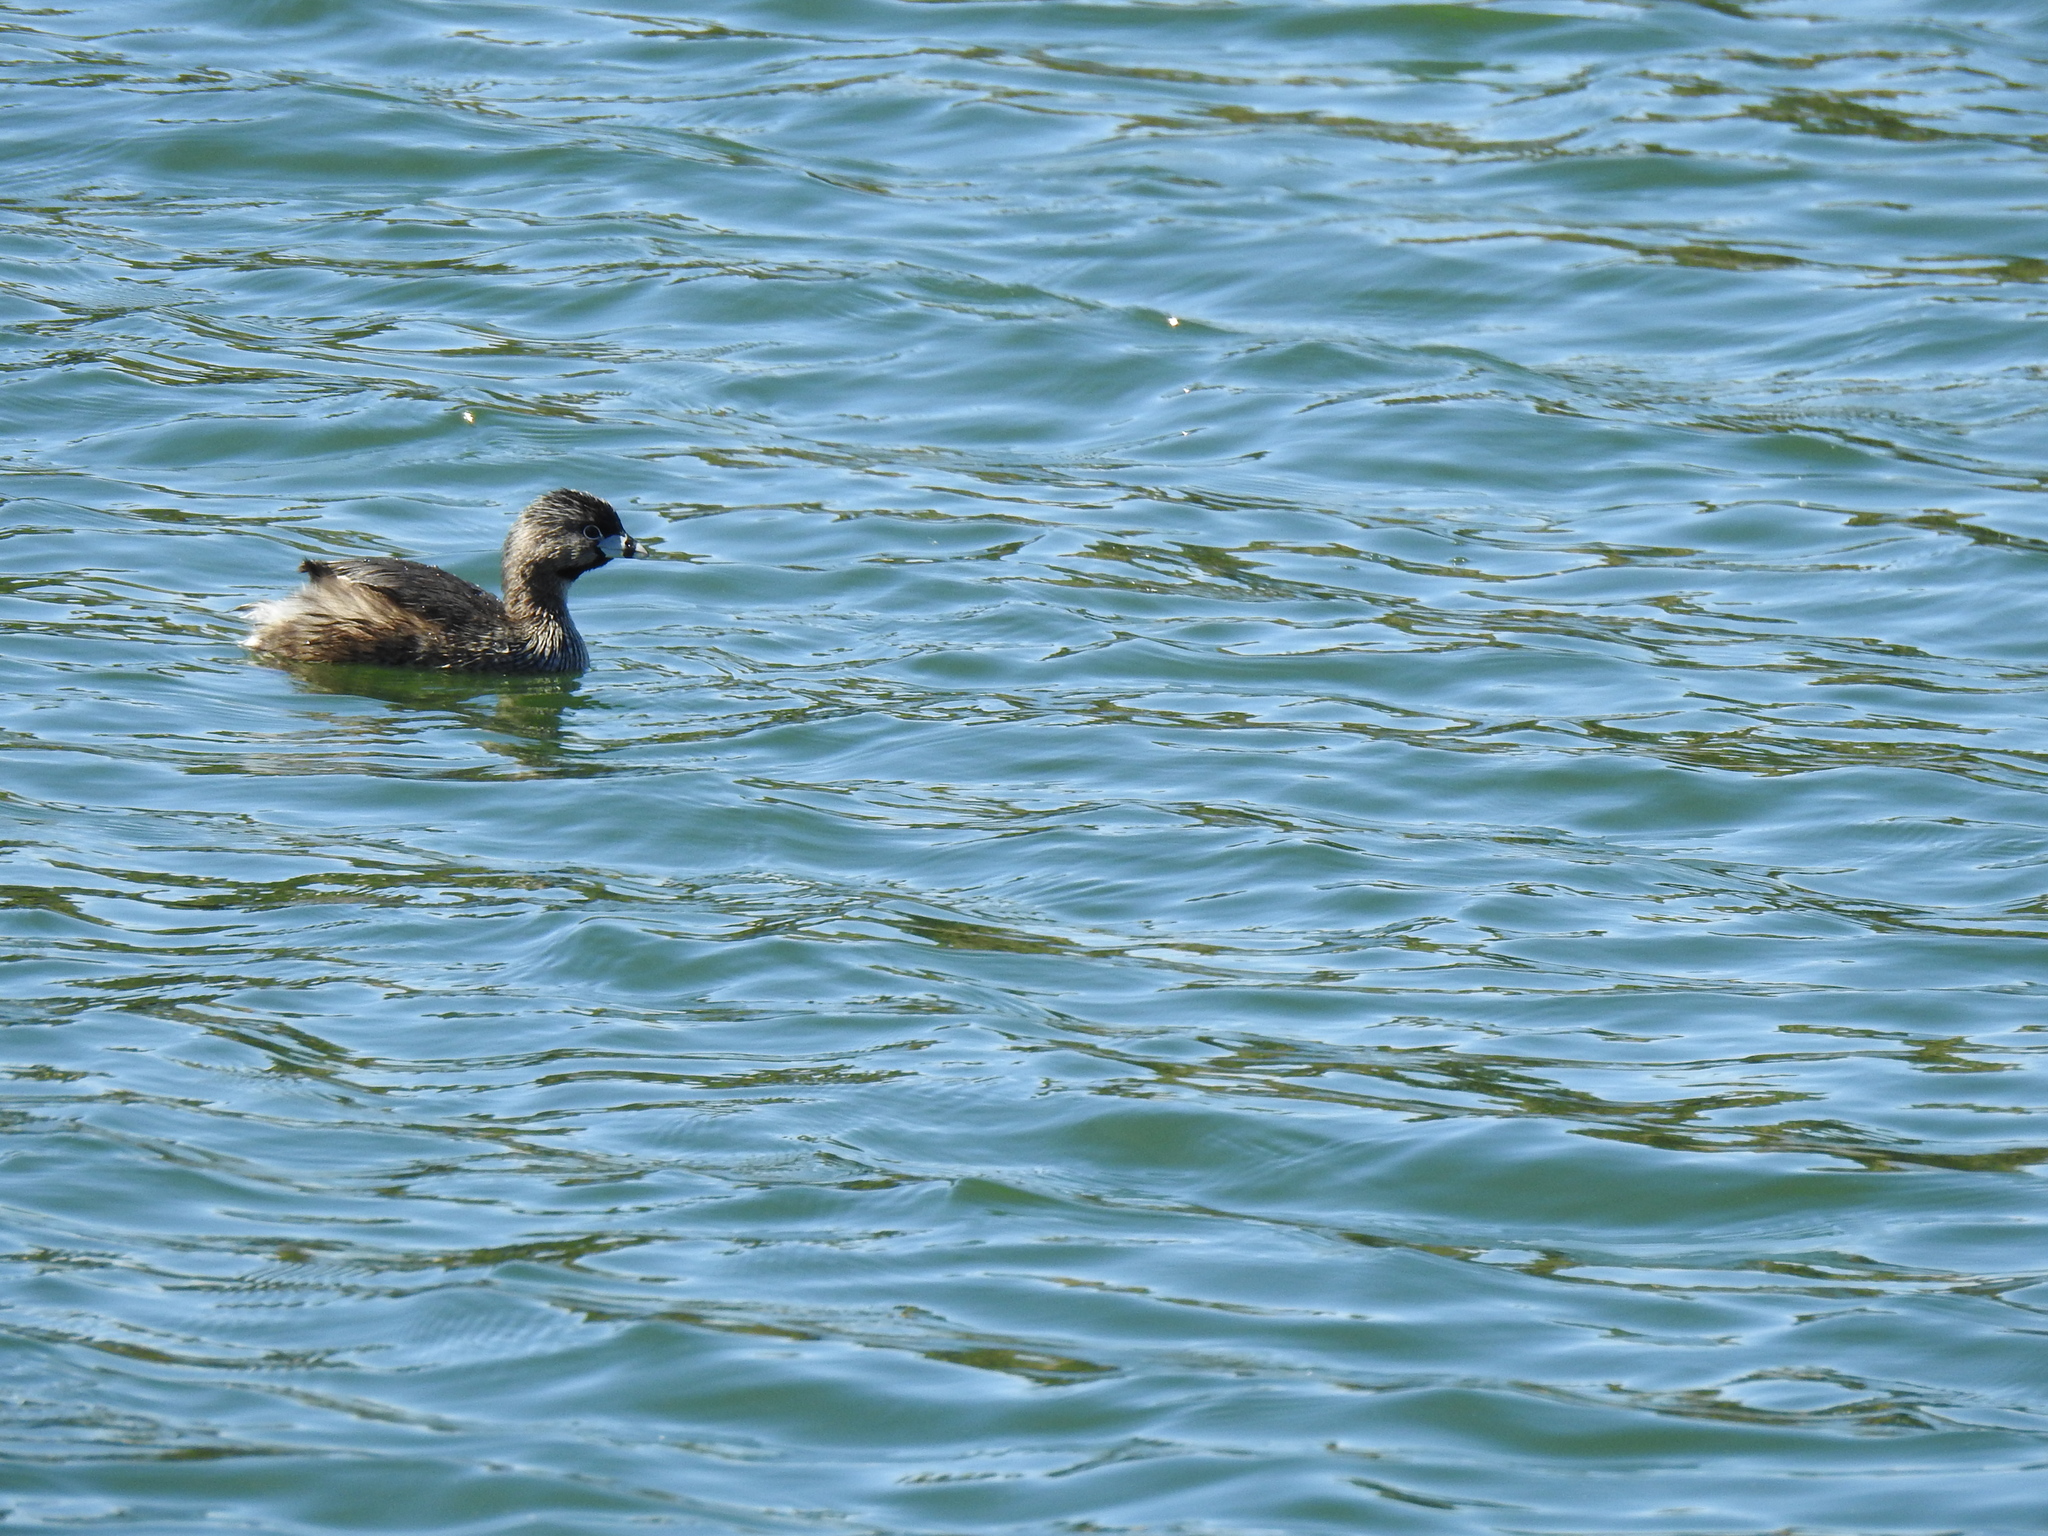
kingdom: Animalia
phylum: Chordata
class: Aves
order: Podicipediformes
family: Podicipedidae
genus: Podilymbus
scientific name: Podilymbus podiceps
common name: Pied-billed grebe
